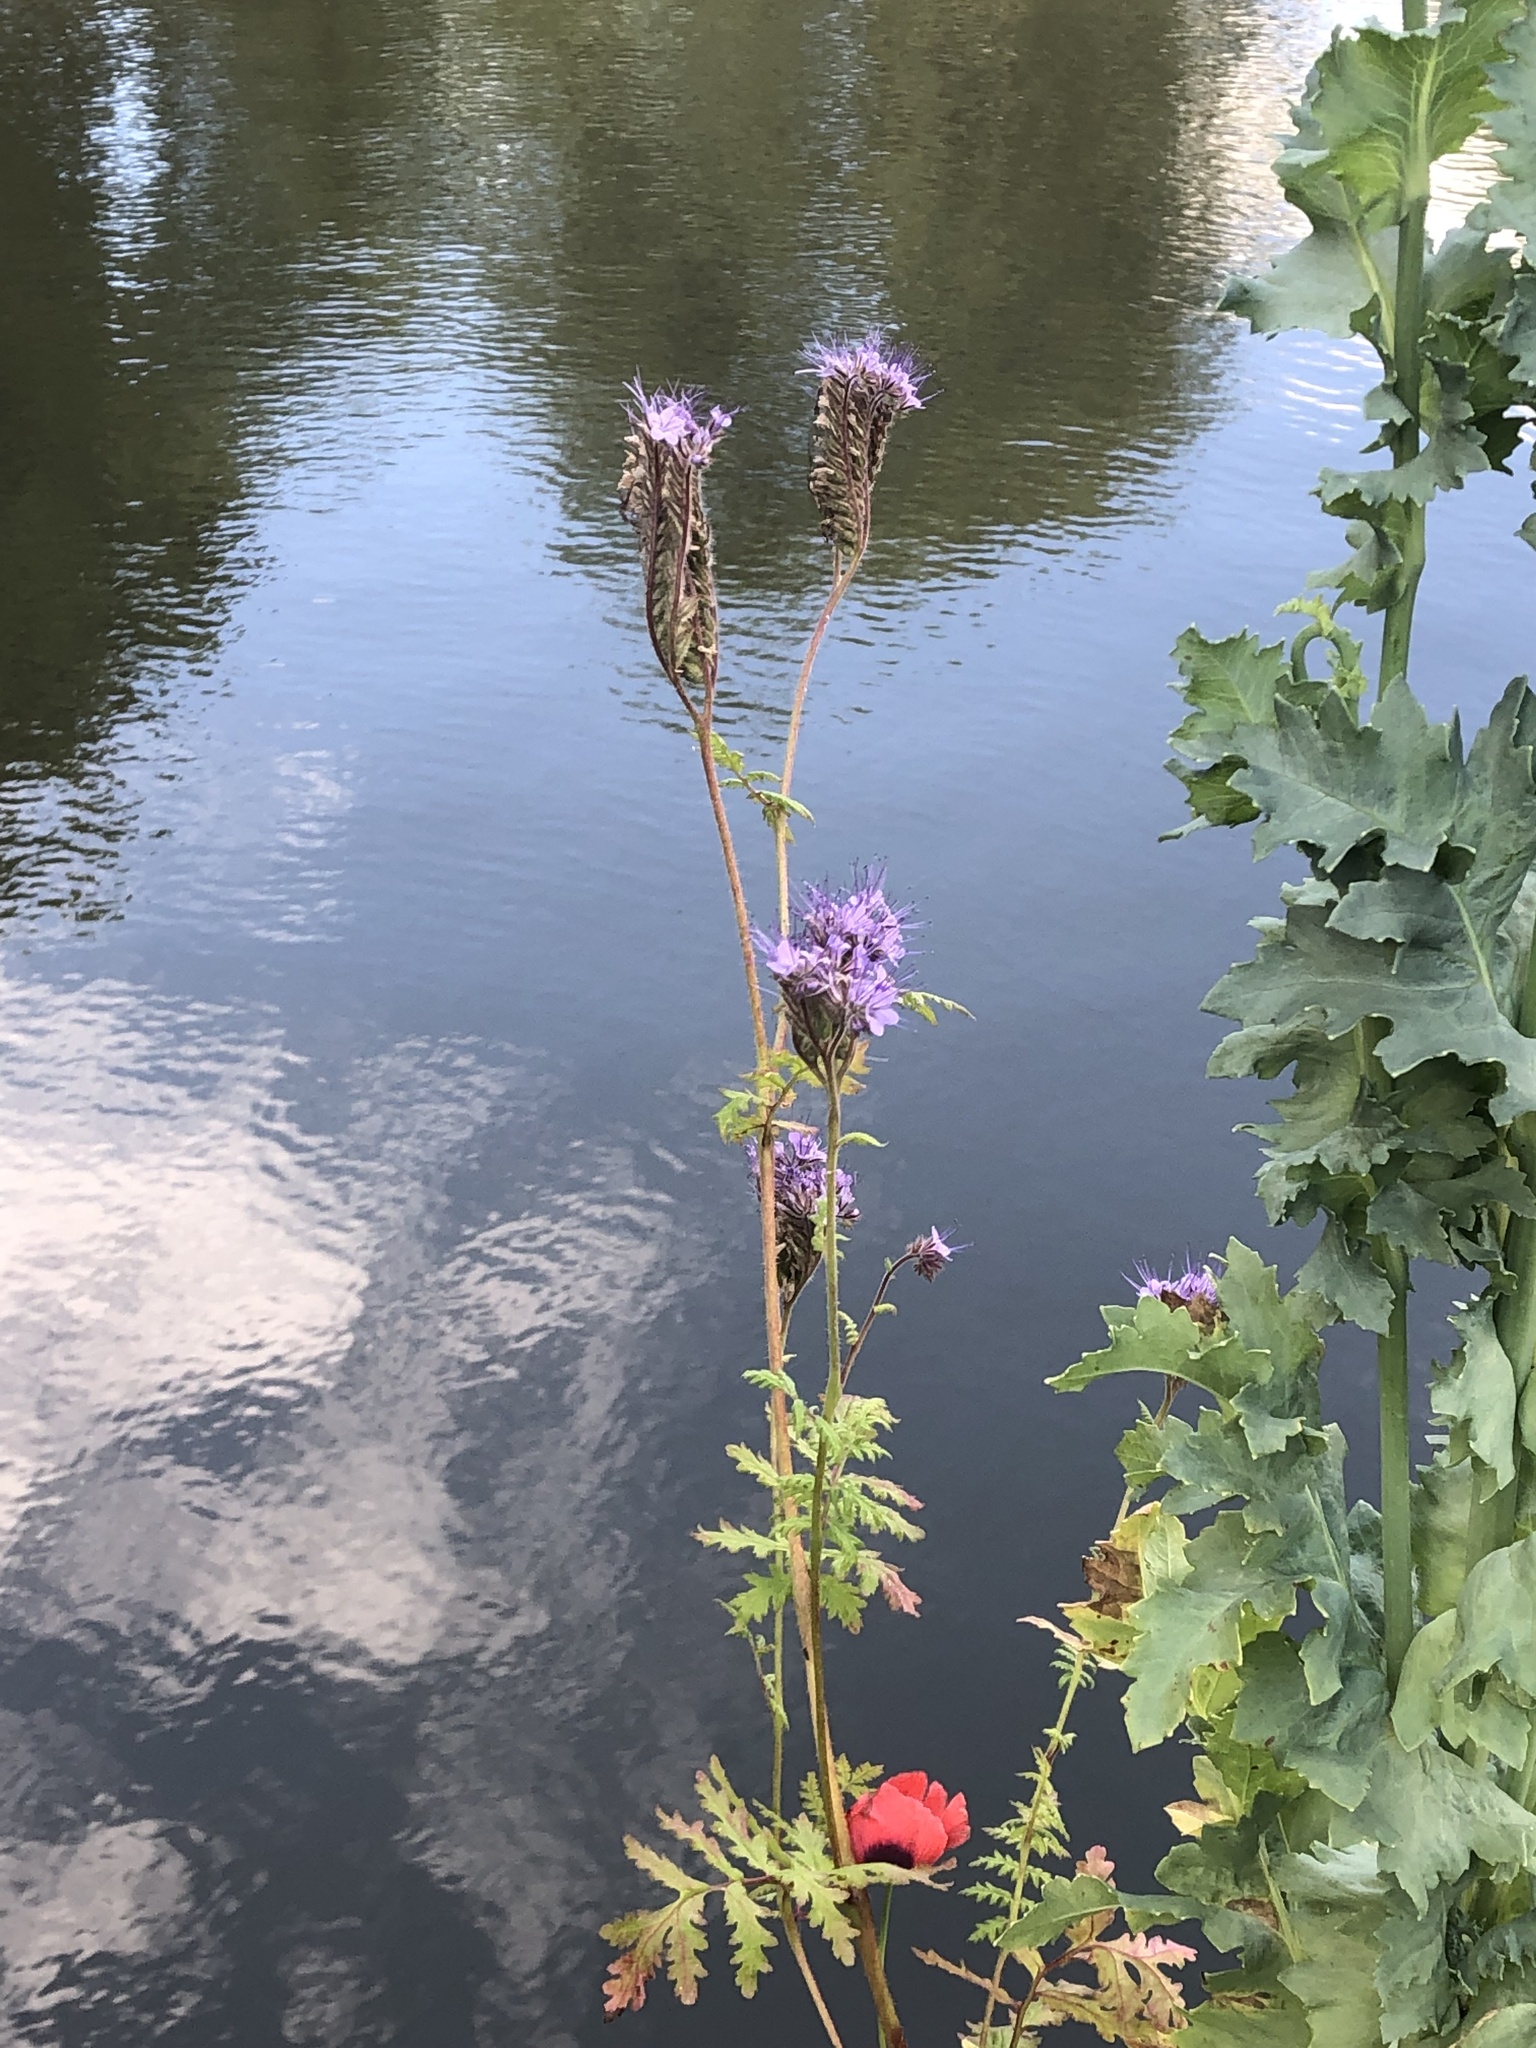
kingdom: Plantae
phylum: Tracheophyta
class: Magnoliopsida
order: Boraginales
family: Hydrophyllaceae
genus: Phacelia
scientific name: Phacelia tanacetifolia
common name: Phacelia
